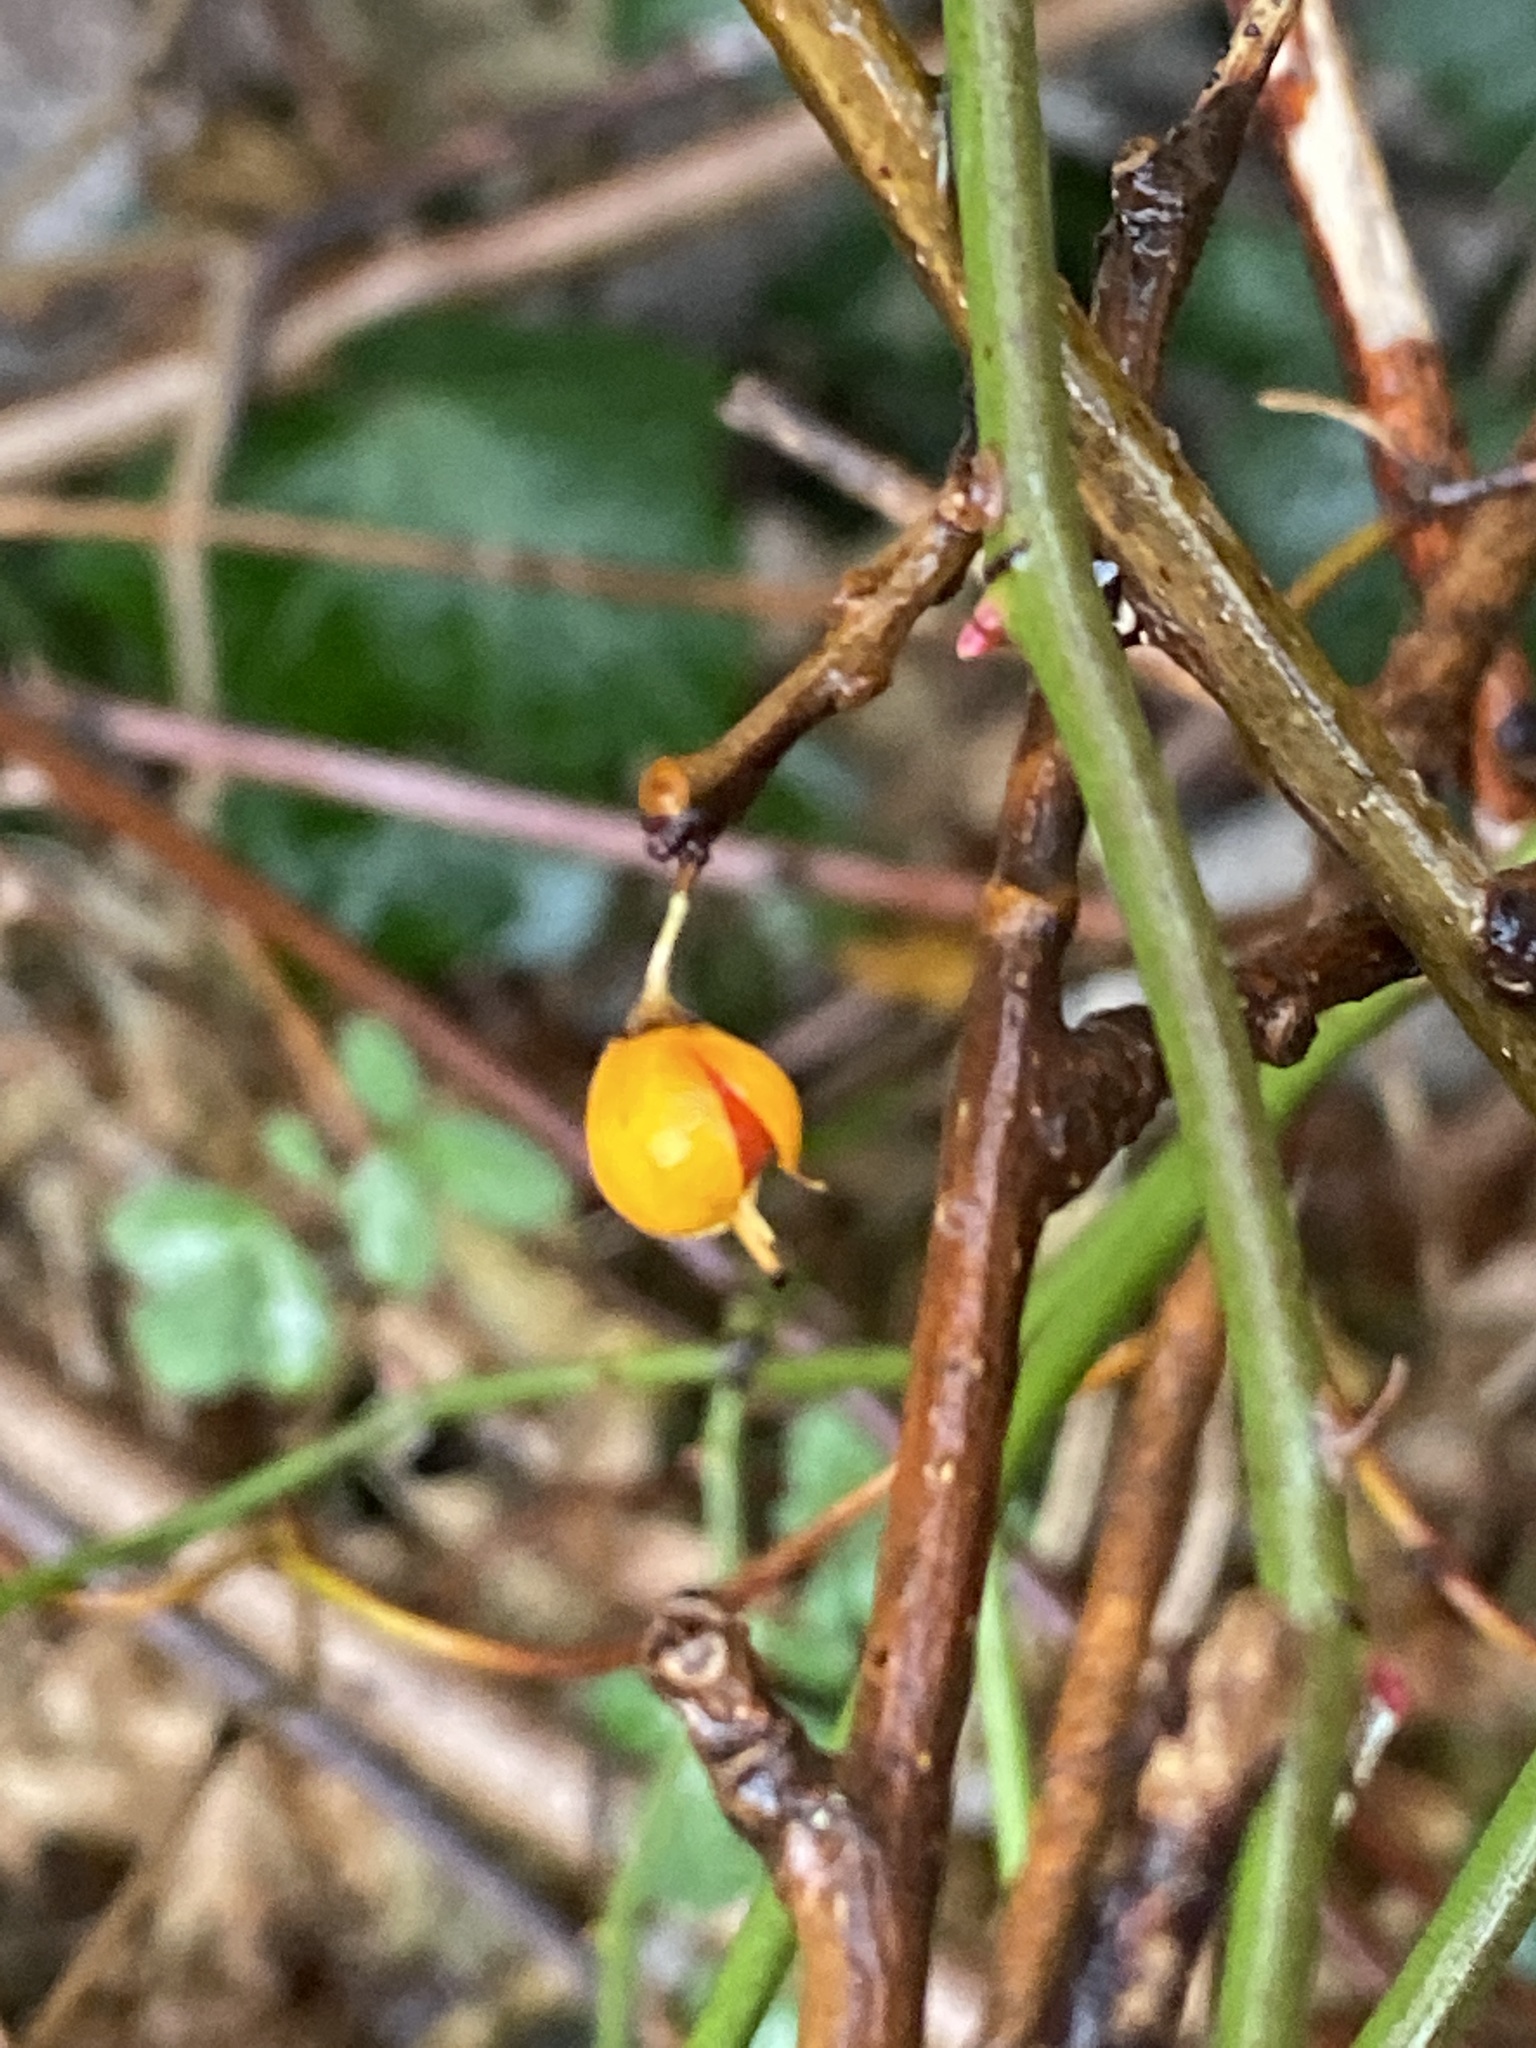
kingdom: Plantae
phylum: Tracheophyta
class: Magnoliopsida
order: Celastrales
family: Celastraceae
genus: Celastrus
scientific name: Celastrus orbiculatus
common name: Oriental bittersweet
